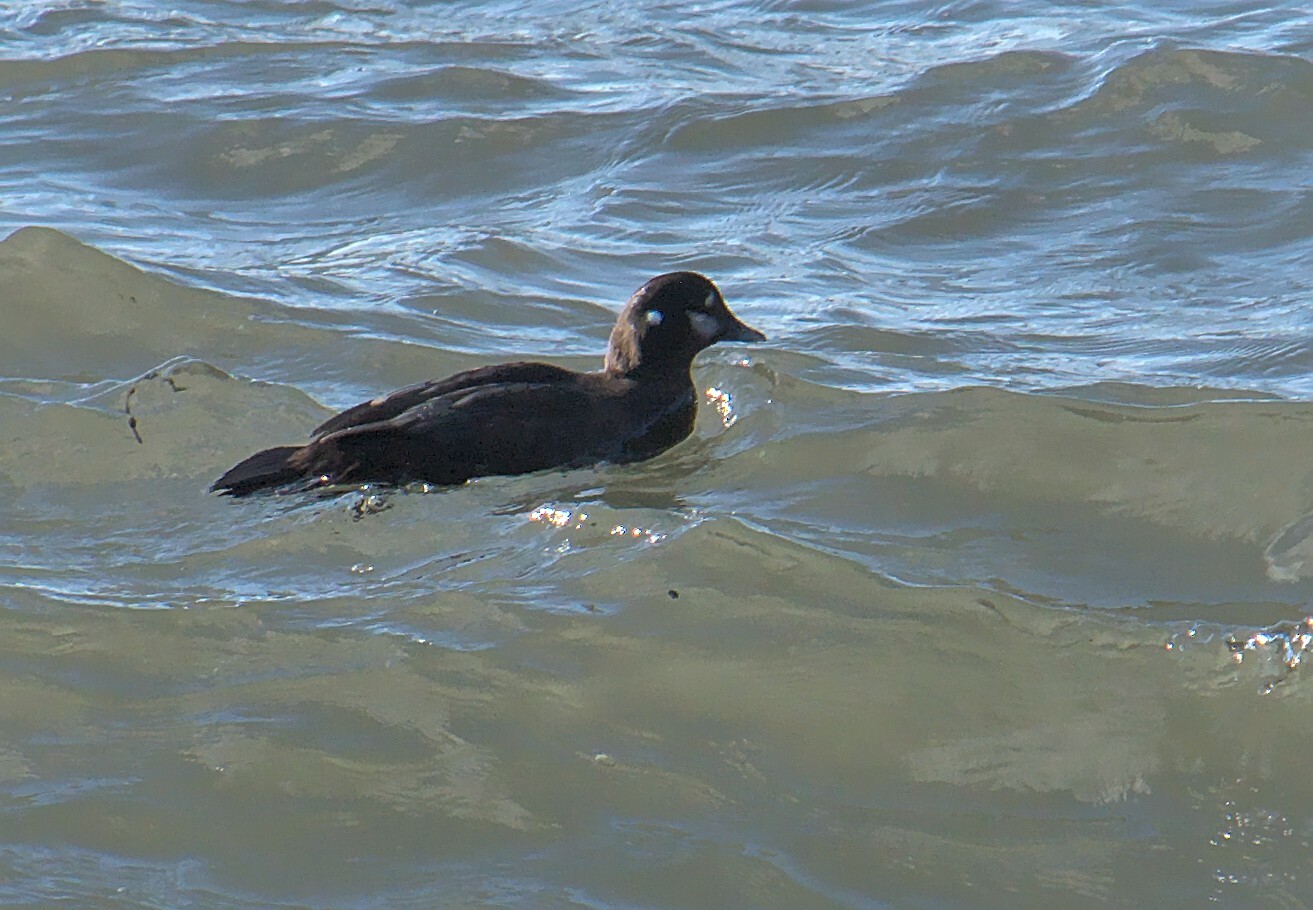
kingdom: Animalia
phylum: Chordata
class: Aves
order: Anseriformes
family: Anatidae
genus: Histrionicus
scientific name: Histrionicus histrionicus
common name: Harlequin duck
